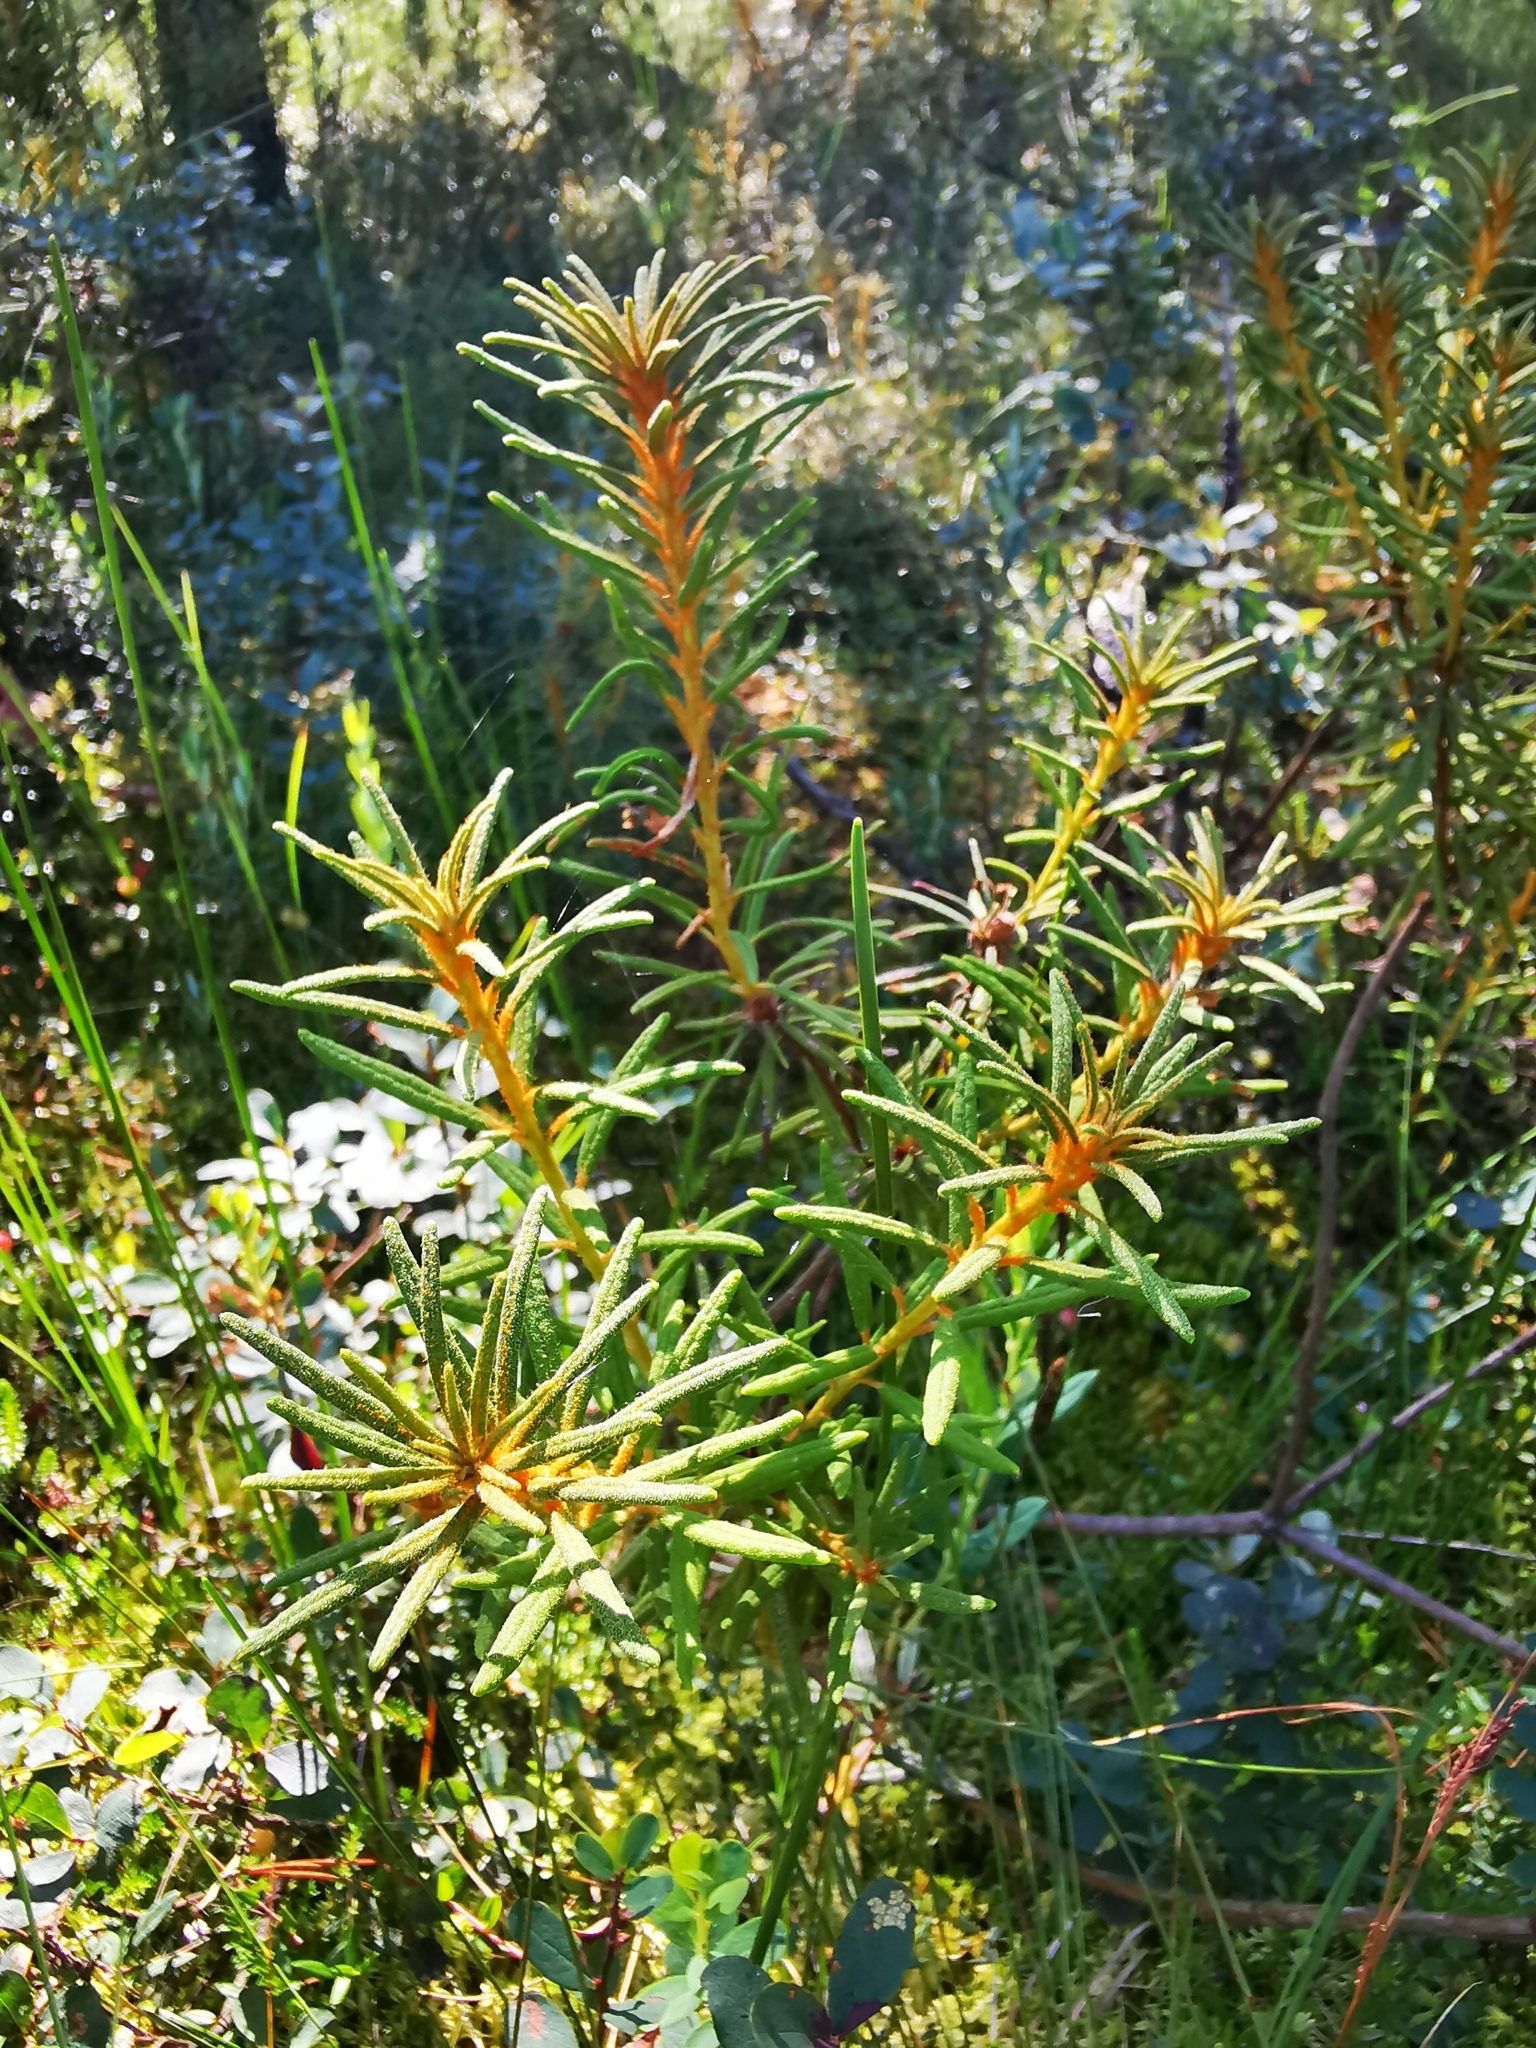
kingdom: Plantae
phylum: Tracheophyta
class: Magnoliopsida
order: Ericales
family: Ericaceae
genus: Rhododendron
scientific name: Rhododendron tomentosum
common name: Marsh labrador tea
